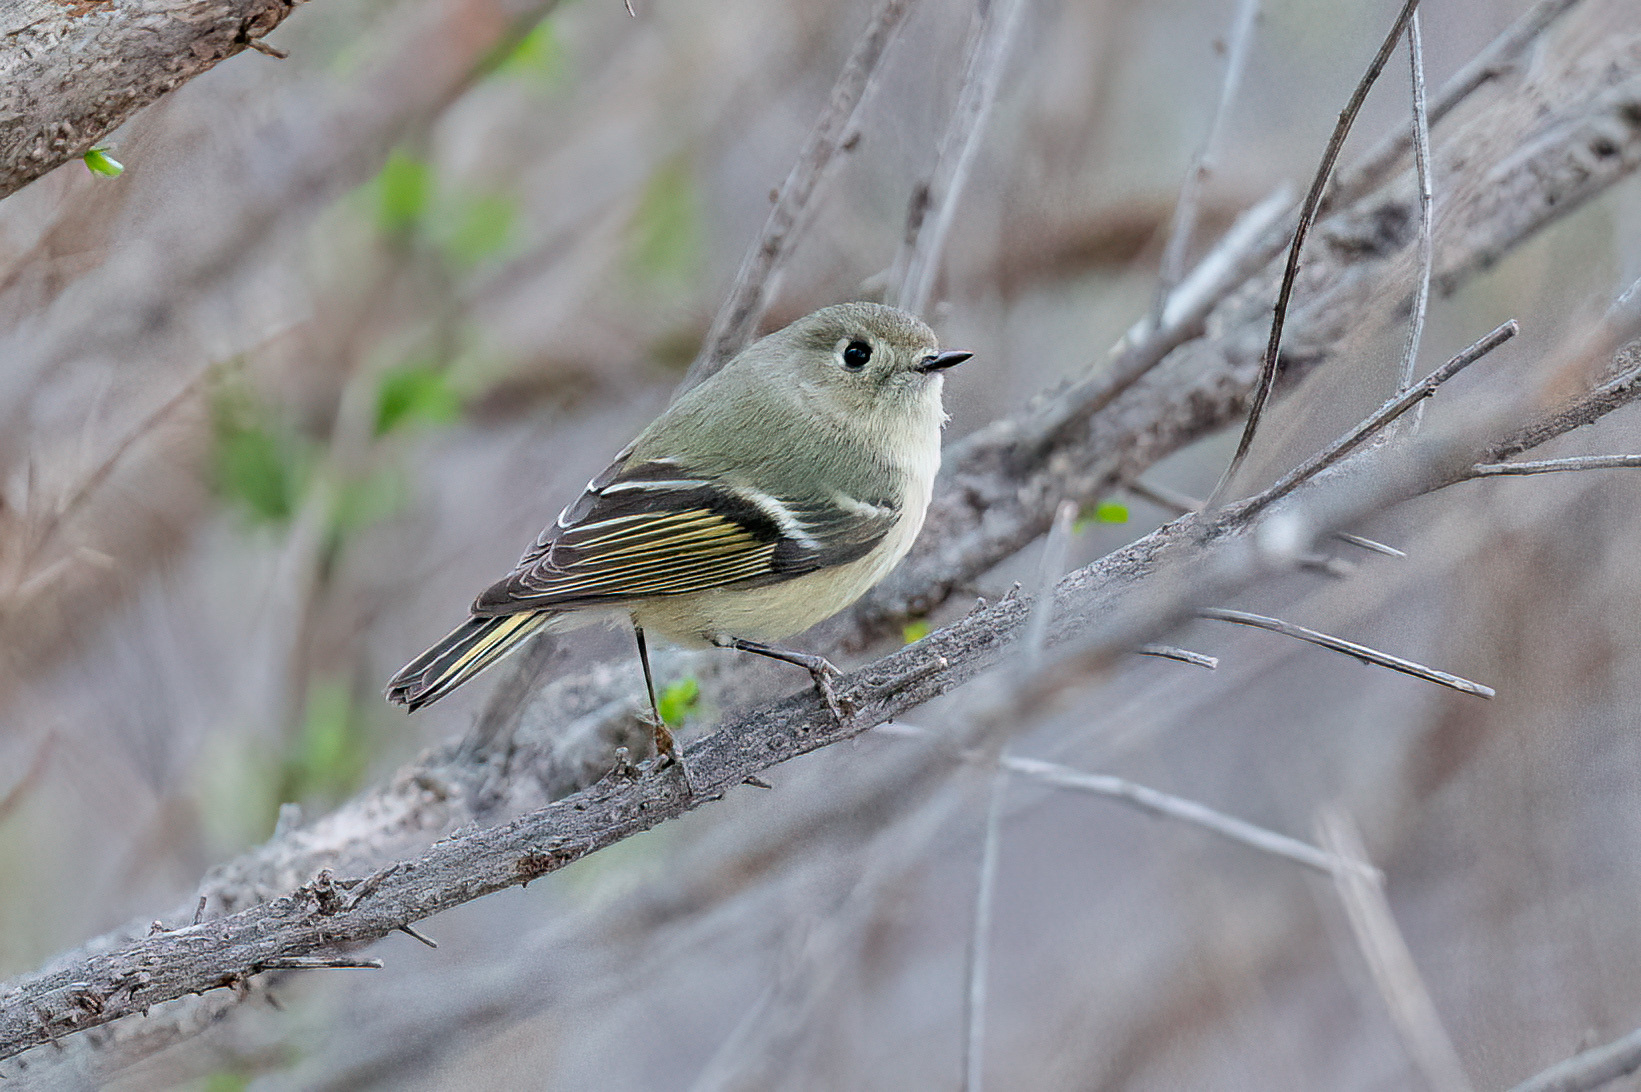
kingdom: Animalia
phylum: Chordata
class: Aves
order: Passeriformes
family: Regulidae
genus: Regulus
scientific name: Regulus calendula
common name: Ruby-crowned kinglet
